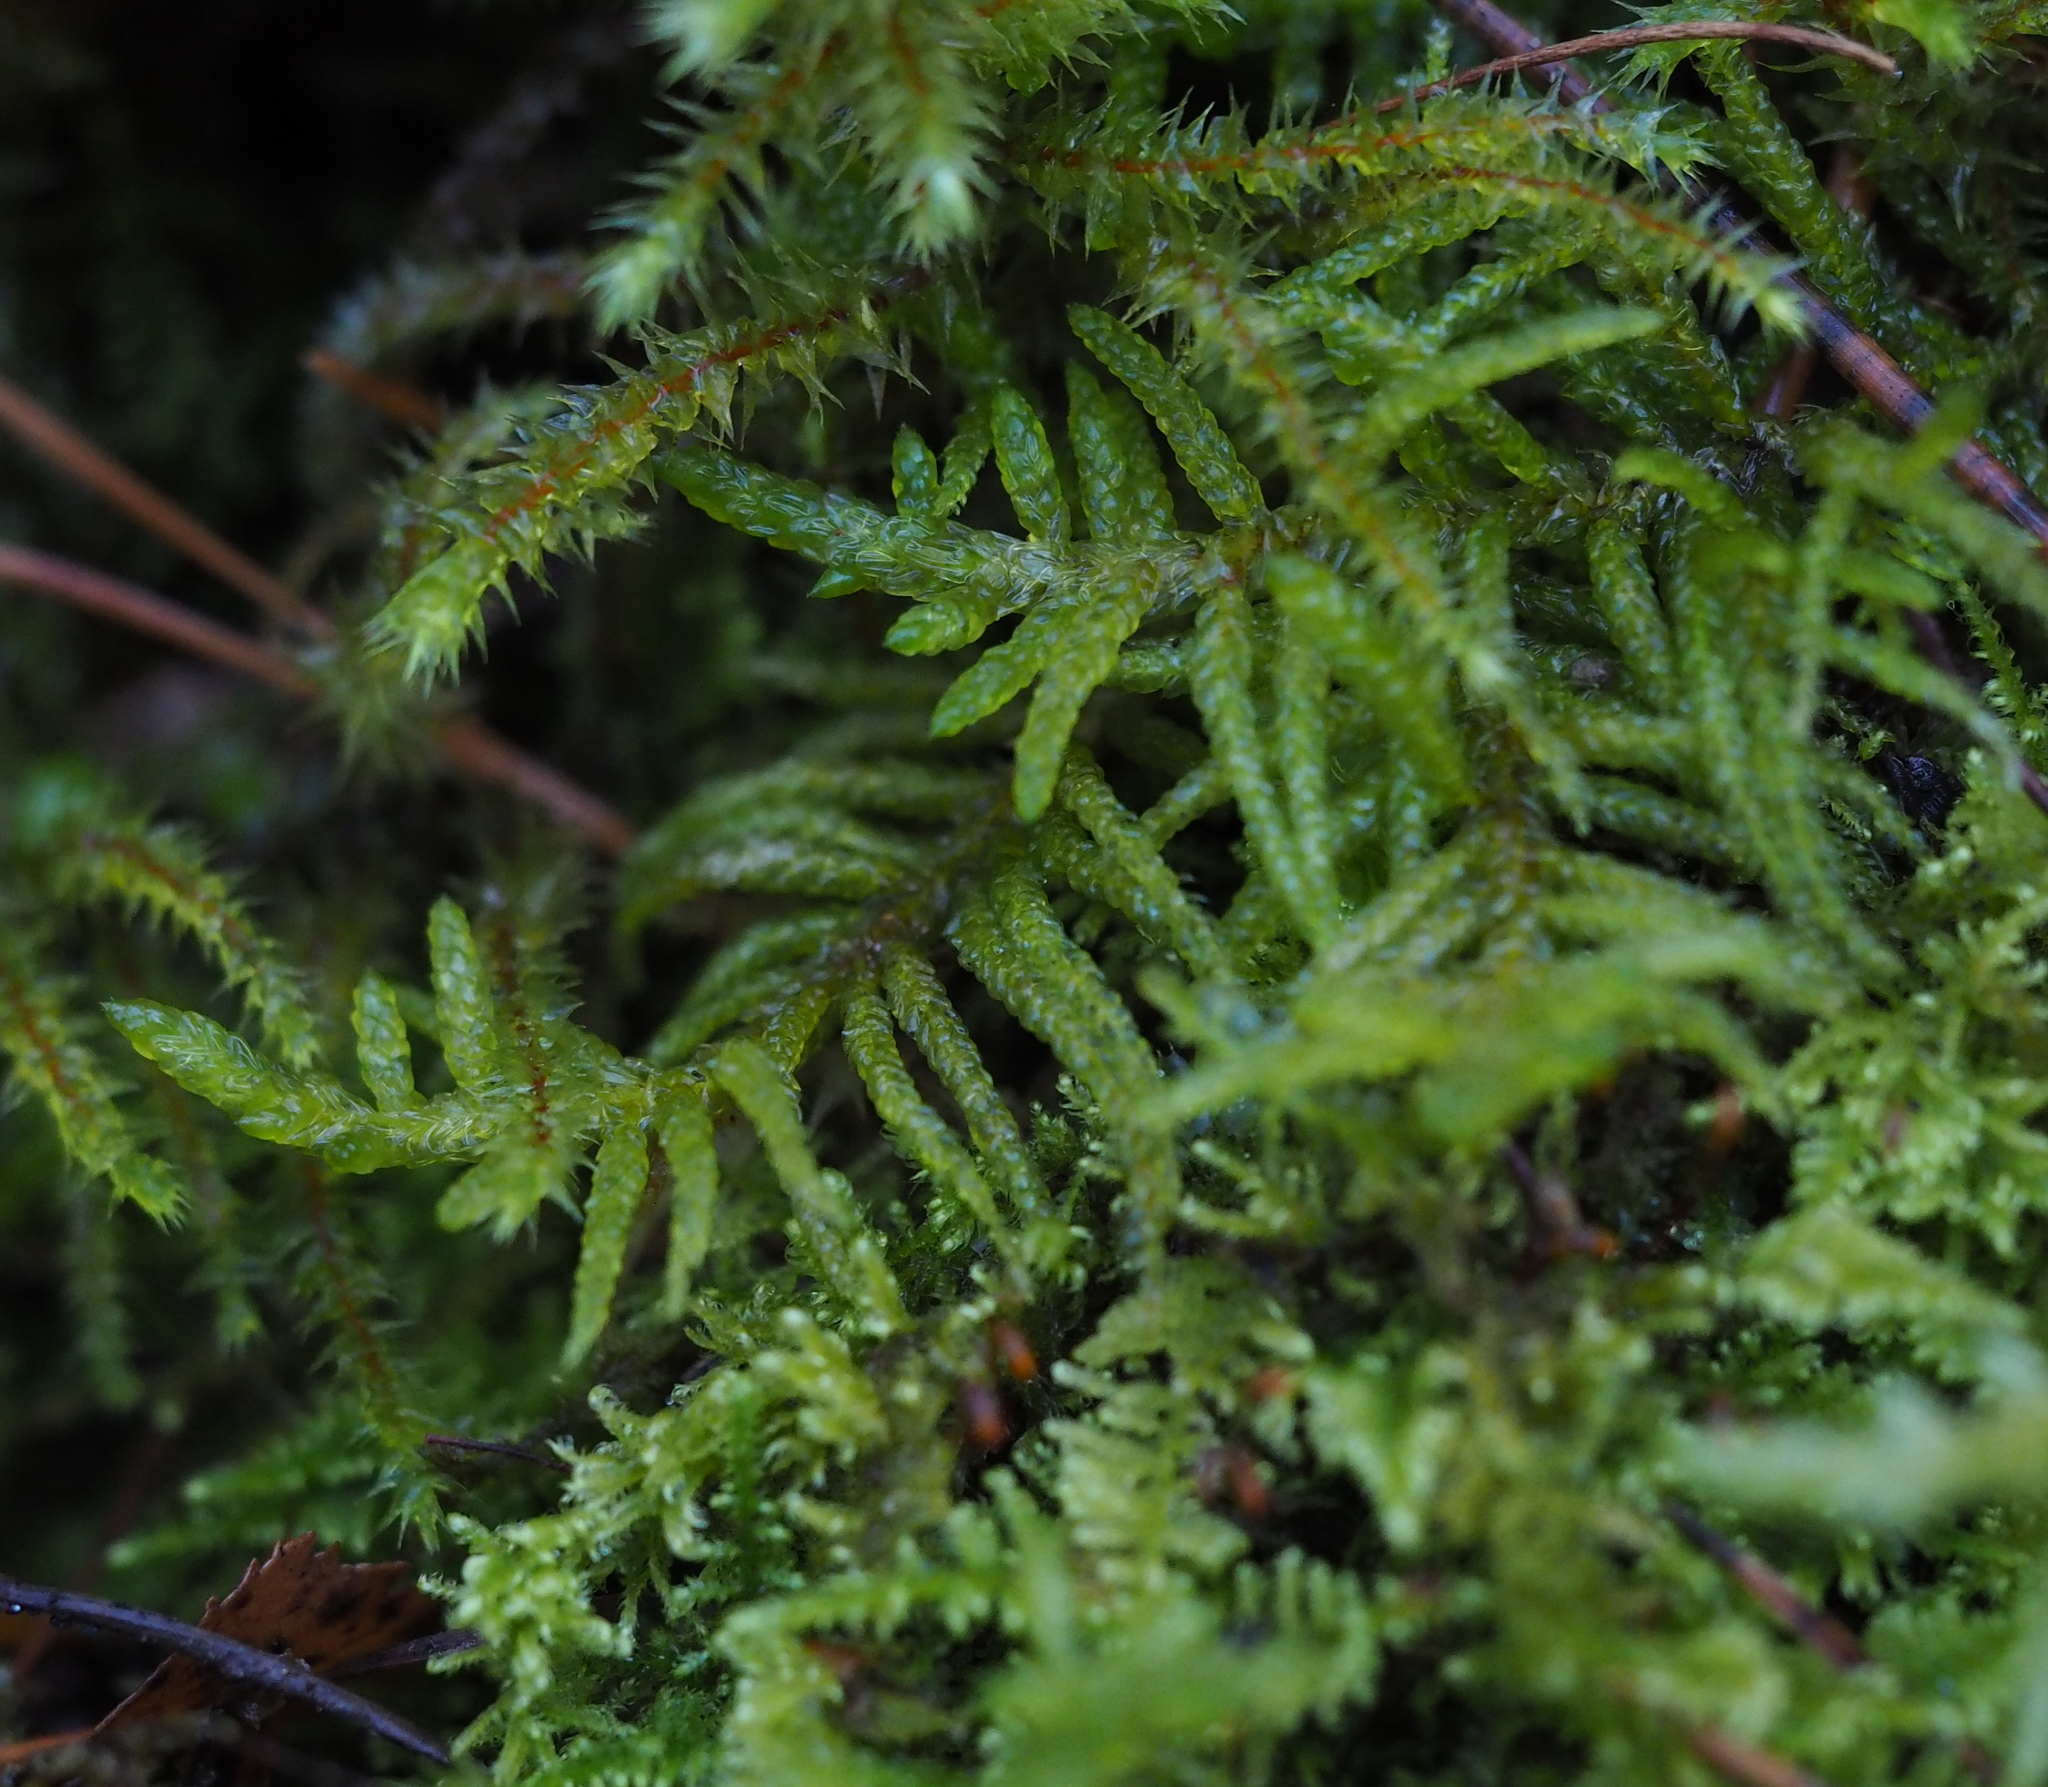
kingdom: Plantae
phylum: Bryophyta
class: Bryopsida
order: Hypnales
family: Brachytheciaceae
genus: Pseudoscleropodium
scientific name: Pseudoscleropodium purum
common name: Neat feather-moss
